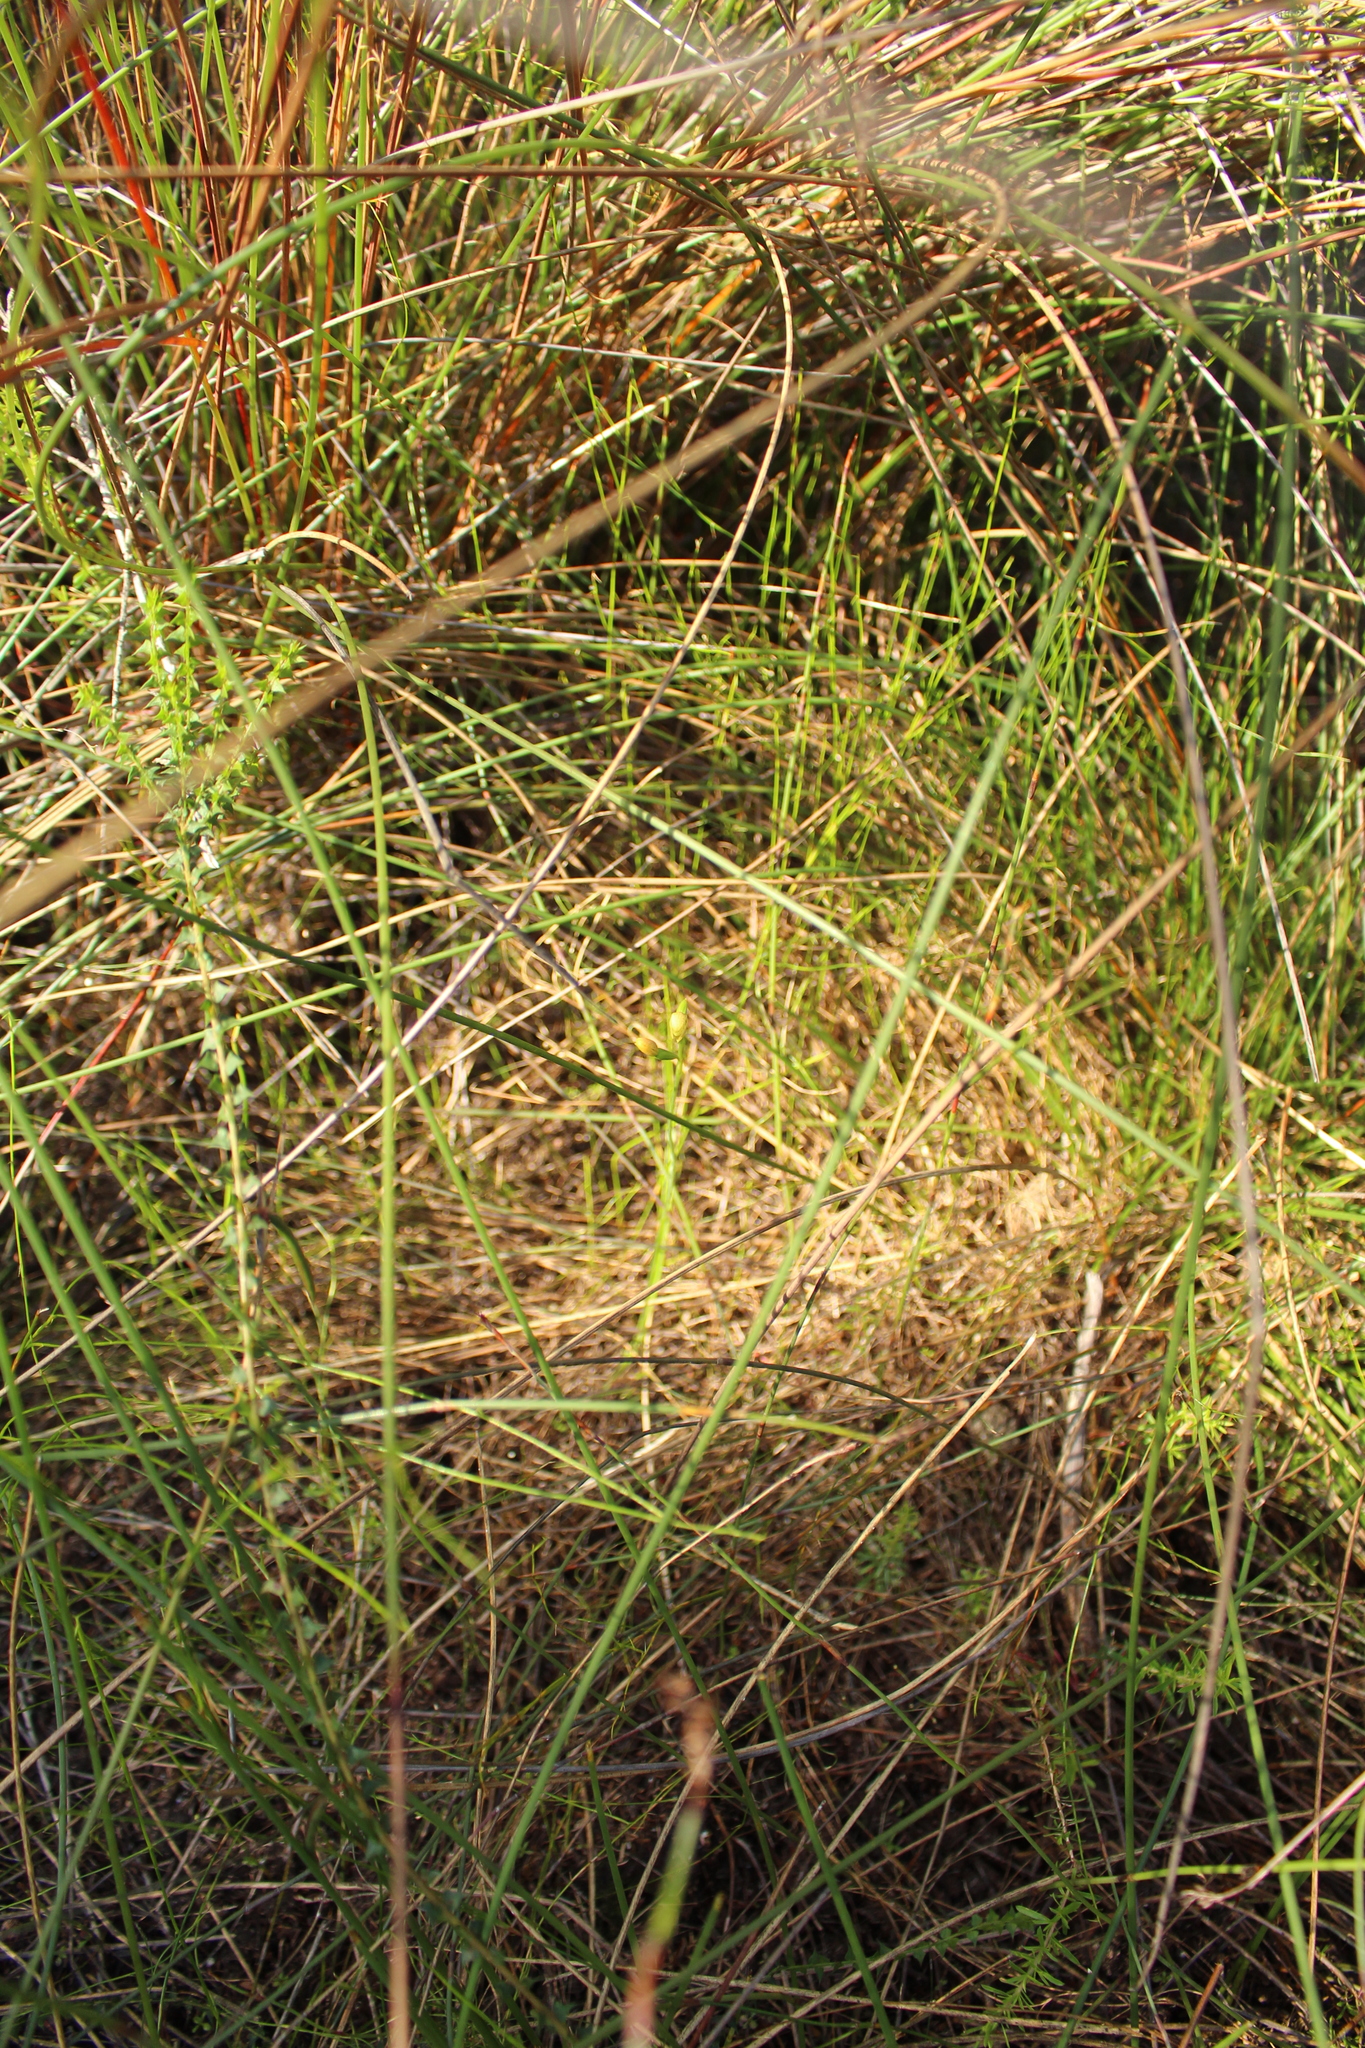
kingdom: Plantae
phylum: Tracheophyta
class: Liliopsida
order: Asparagales
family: Orchidaceae
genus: Thelymitra
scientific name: Thelymitra tigrina
